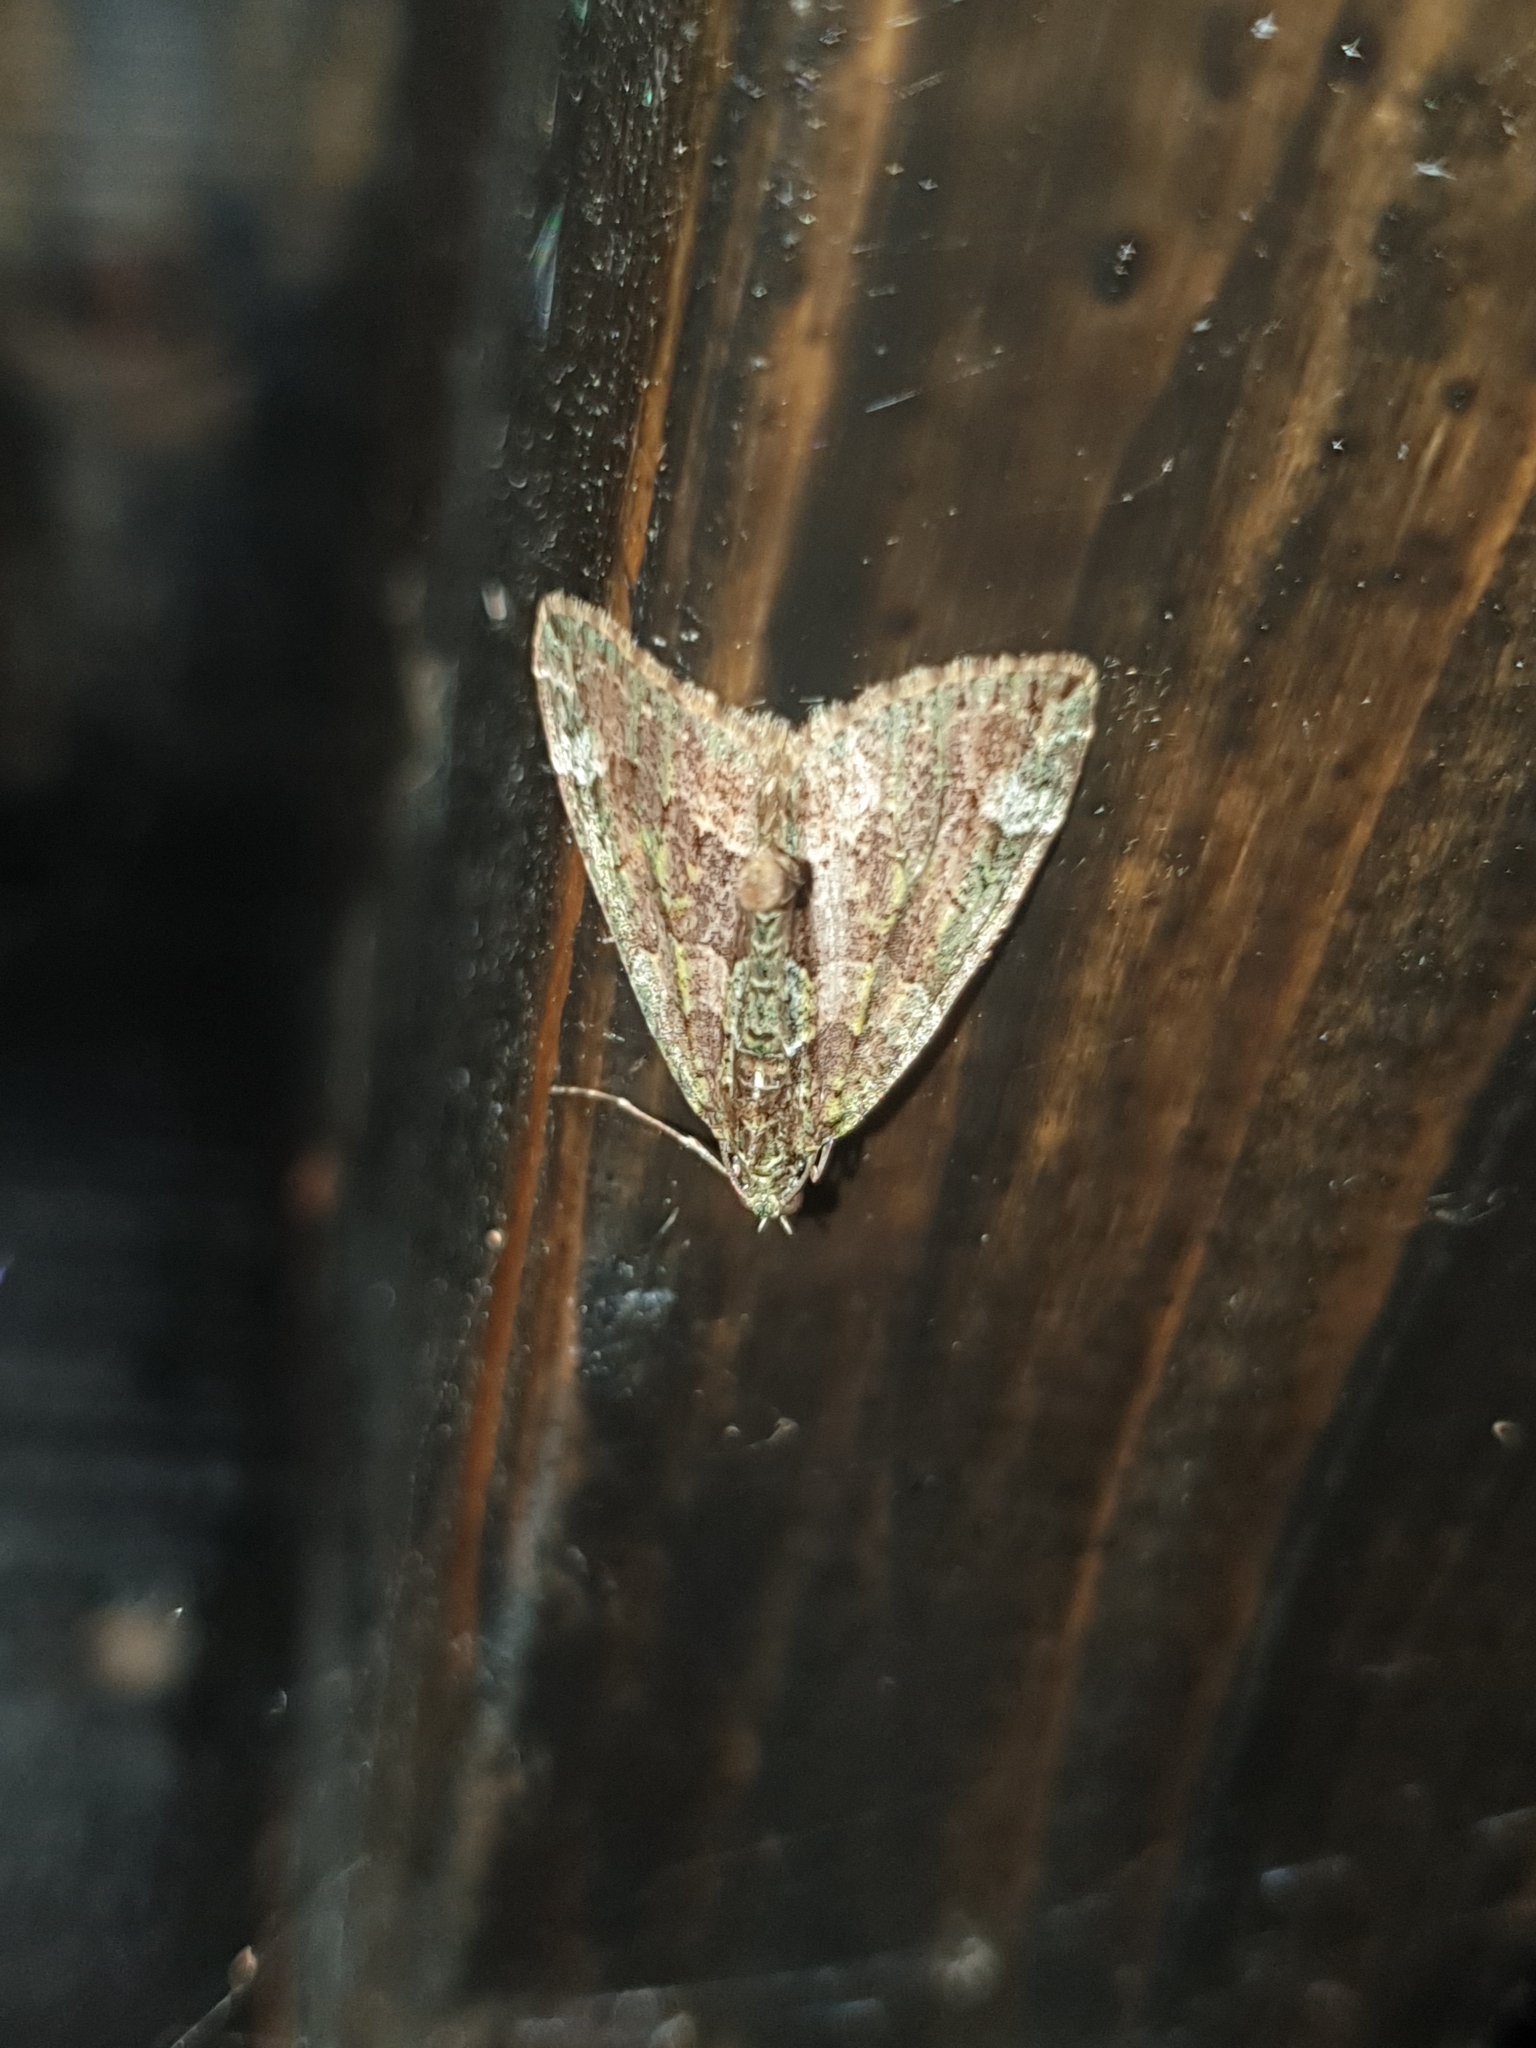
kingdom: Animalia
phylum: Arthropoda
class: Insecta
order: Lepidoptera
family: Geometridae
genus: Chloroclysta
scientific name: Chloroclysta siterata
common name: Red-green carpet
